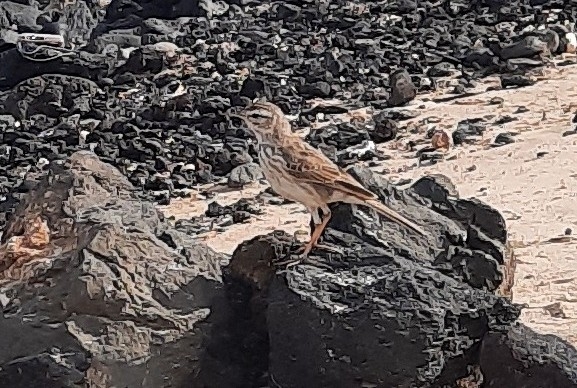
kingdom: Animalia
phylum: Chordata
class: Aves
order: Passeriformes
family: Motacillidae
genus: Anthus
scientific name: Anthus berthelotii
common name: Berthelot's pipit
